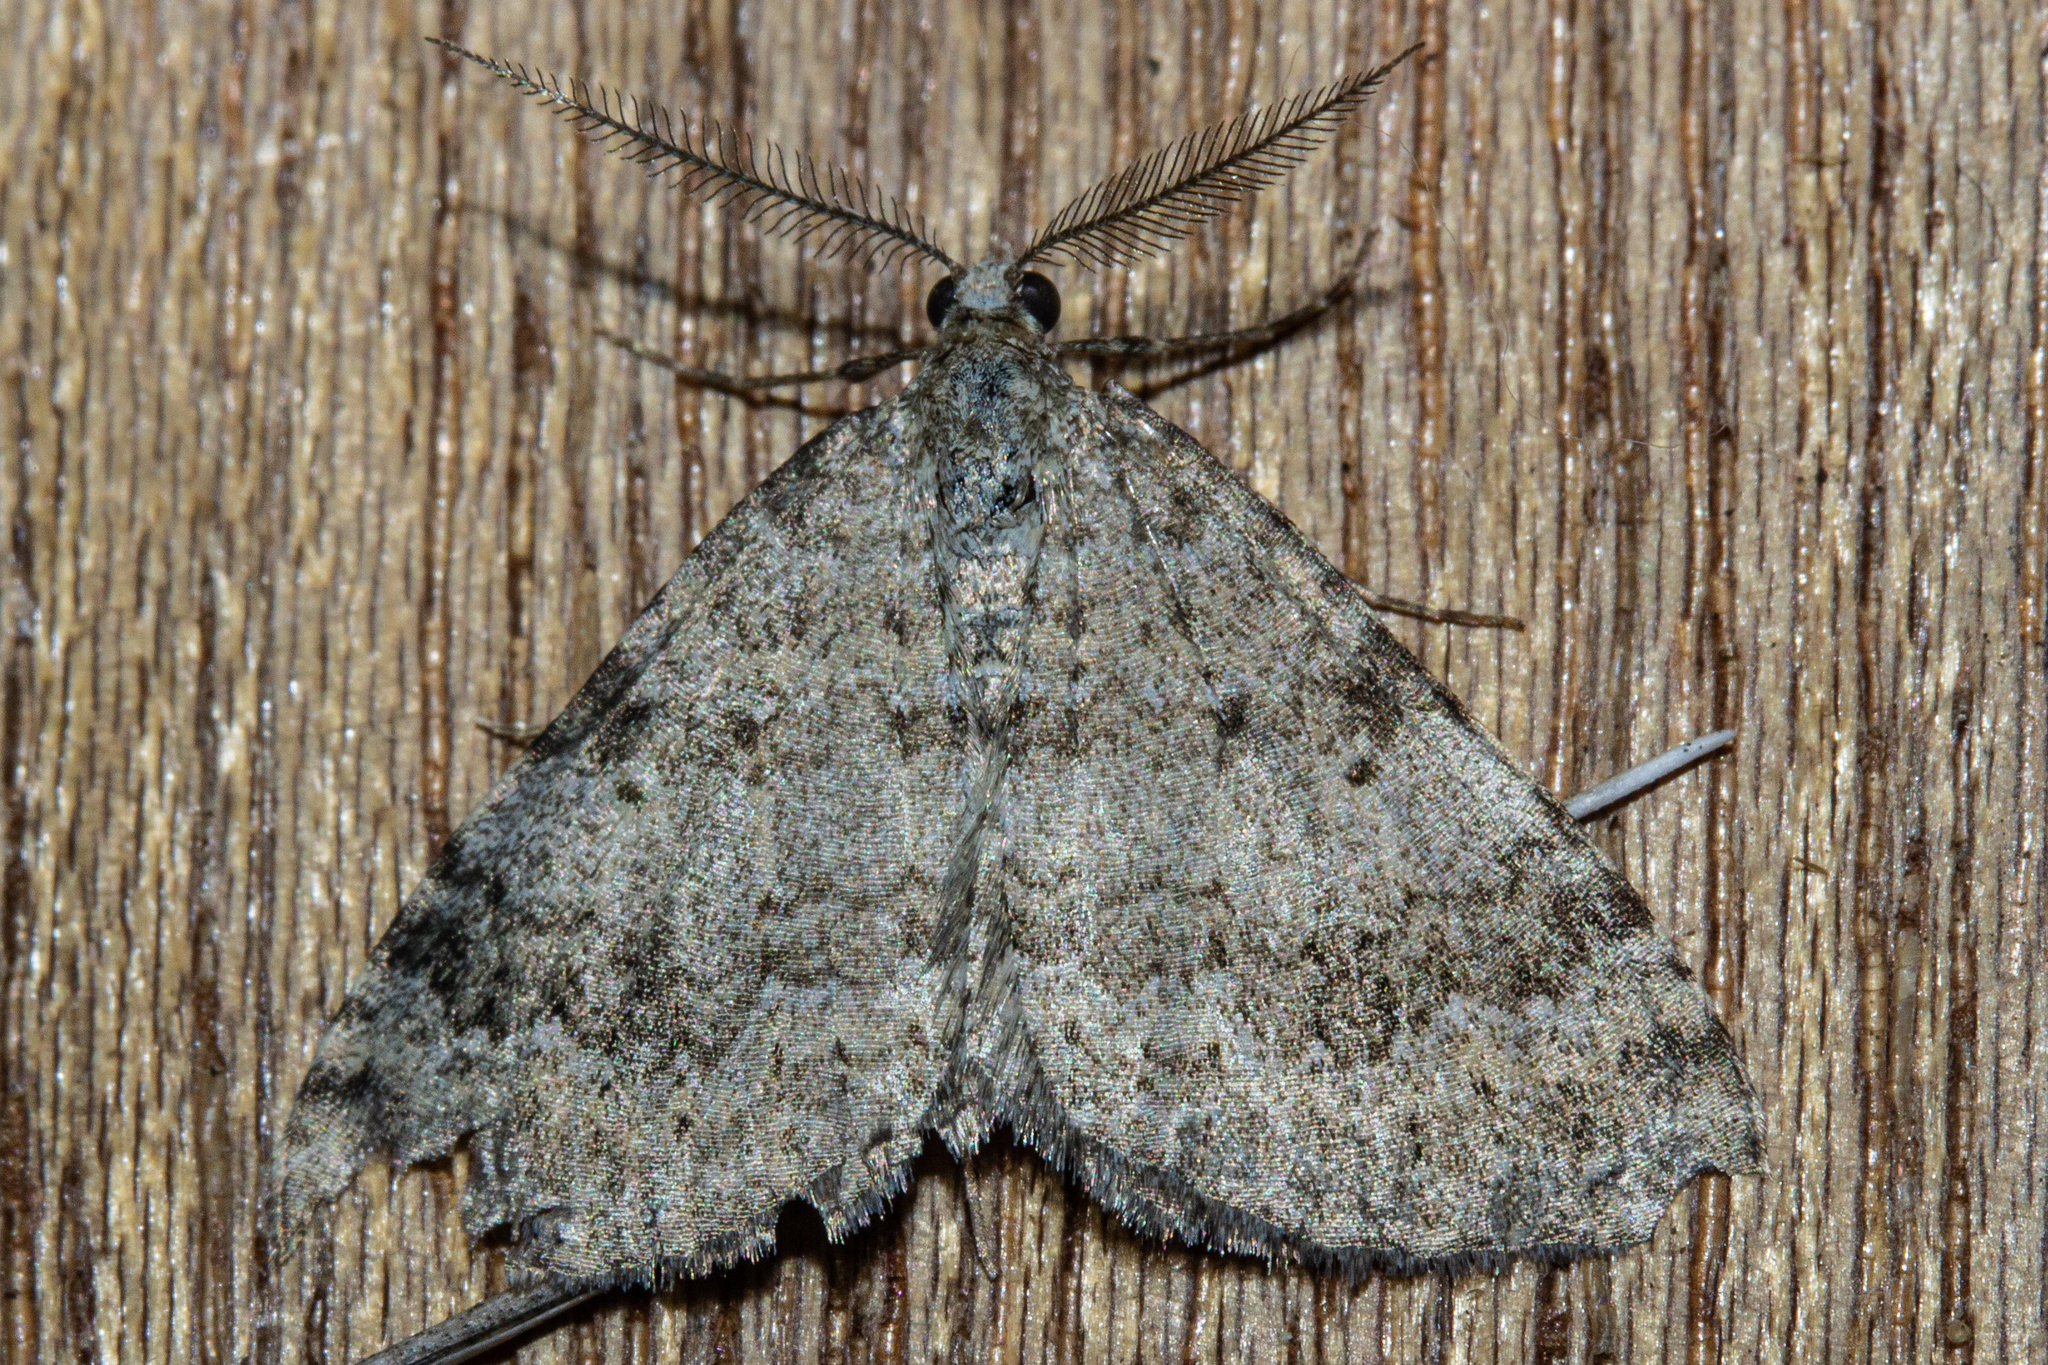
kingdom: Animalia
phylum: Arthropoda
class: Insecta
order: Lepidoptera
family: Geometridae
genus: Helastia
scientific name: Helastia corcularia
